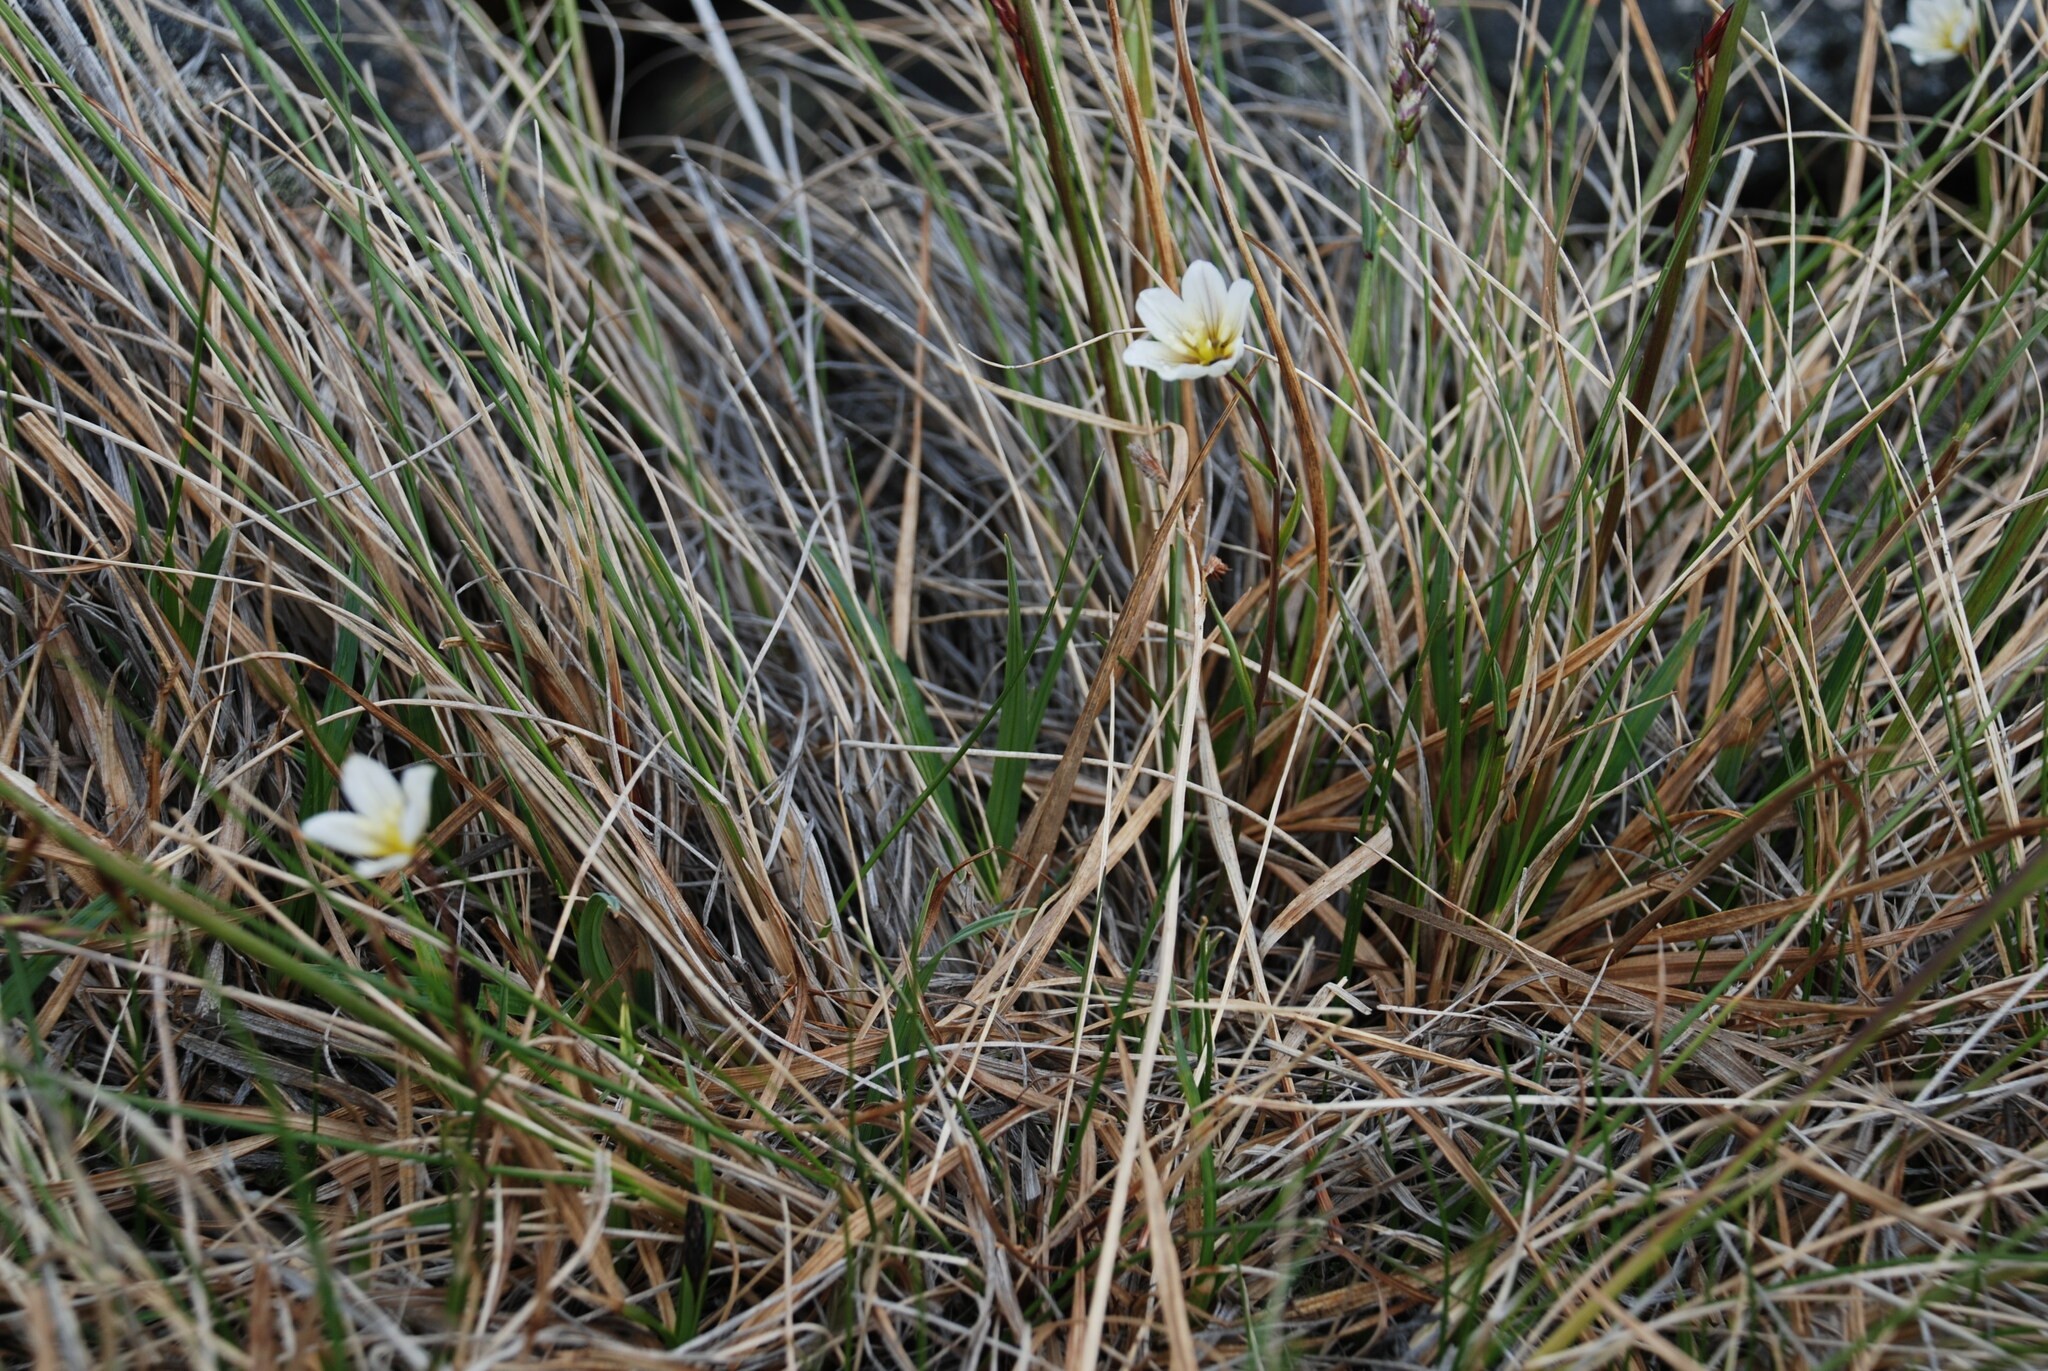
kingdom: Plantae
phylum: Tracheophyta
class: Liliopsida
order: Liliales
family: Liliaceae
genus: Gagea
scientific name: Gagea serotina
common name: Snowdon lily
